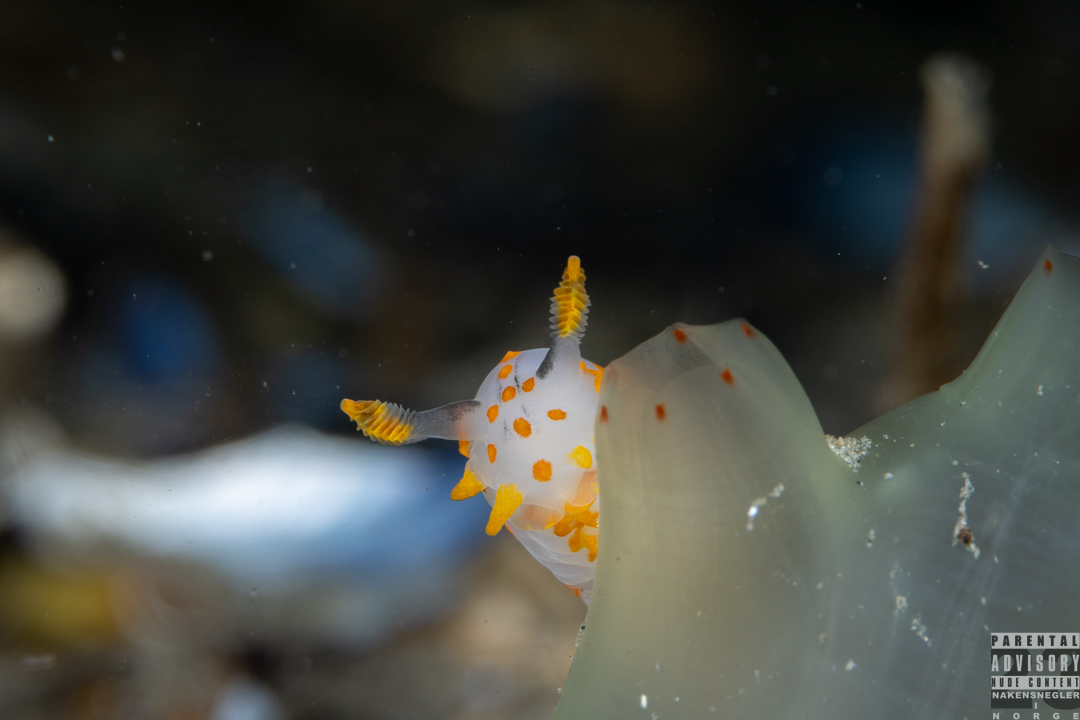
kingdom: Animalia
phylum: Mollusca
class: Gastropoda
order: Nudibranchia
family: Polyceridae
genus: Polycera
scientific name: Polycera quadrilineata
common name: Four-striped polycera
